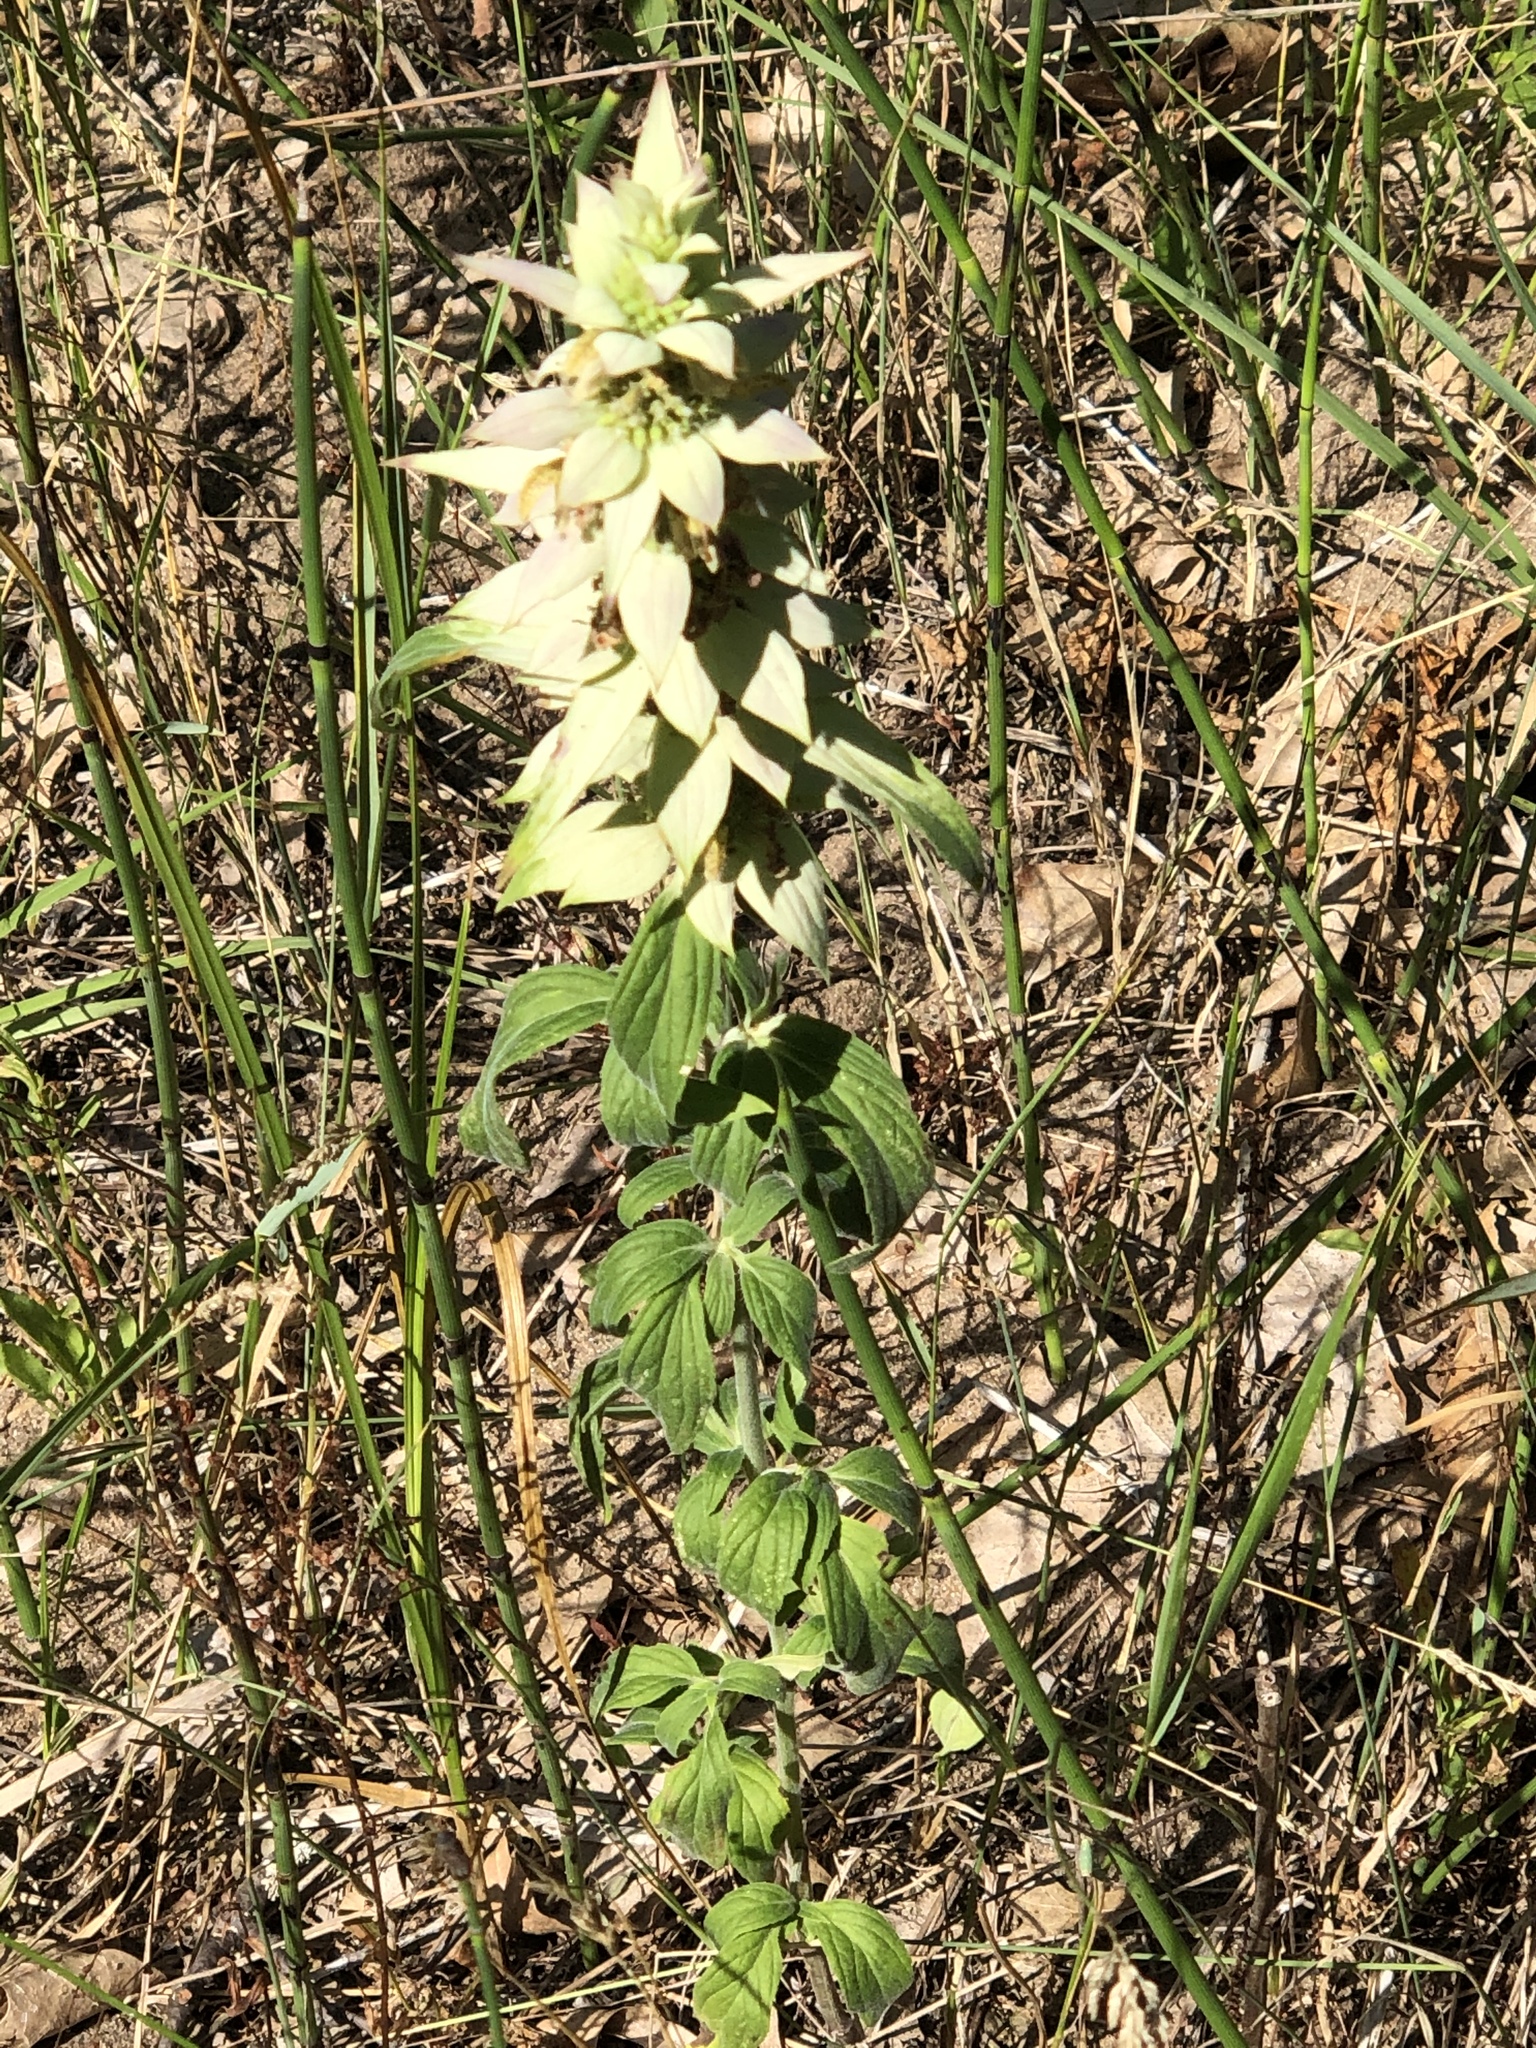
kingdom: Plantae
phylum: Tracheophyta
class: Magnoliopsida
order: Lamiales
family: Lamiaceae
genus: Monarda
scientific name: Monarda punctata
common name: Dotted monarda
